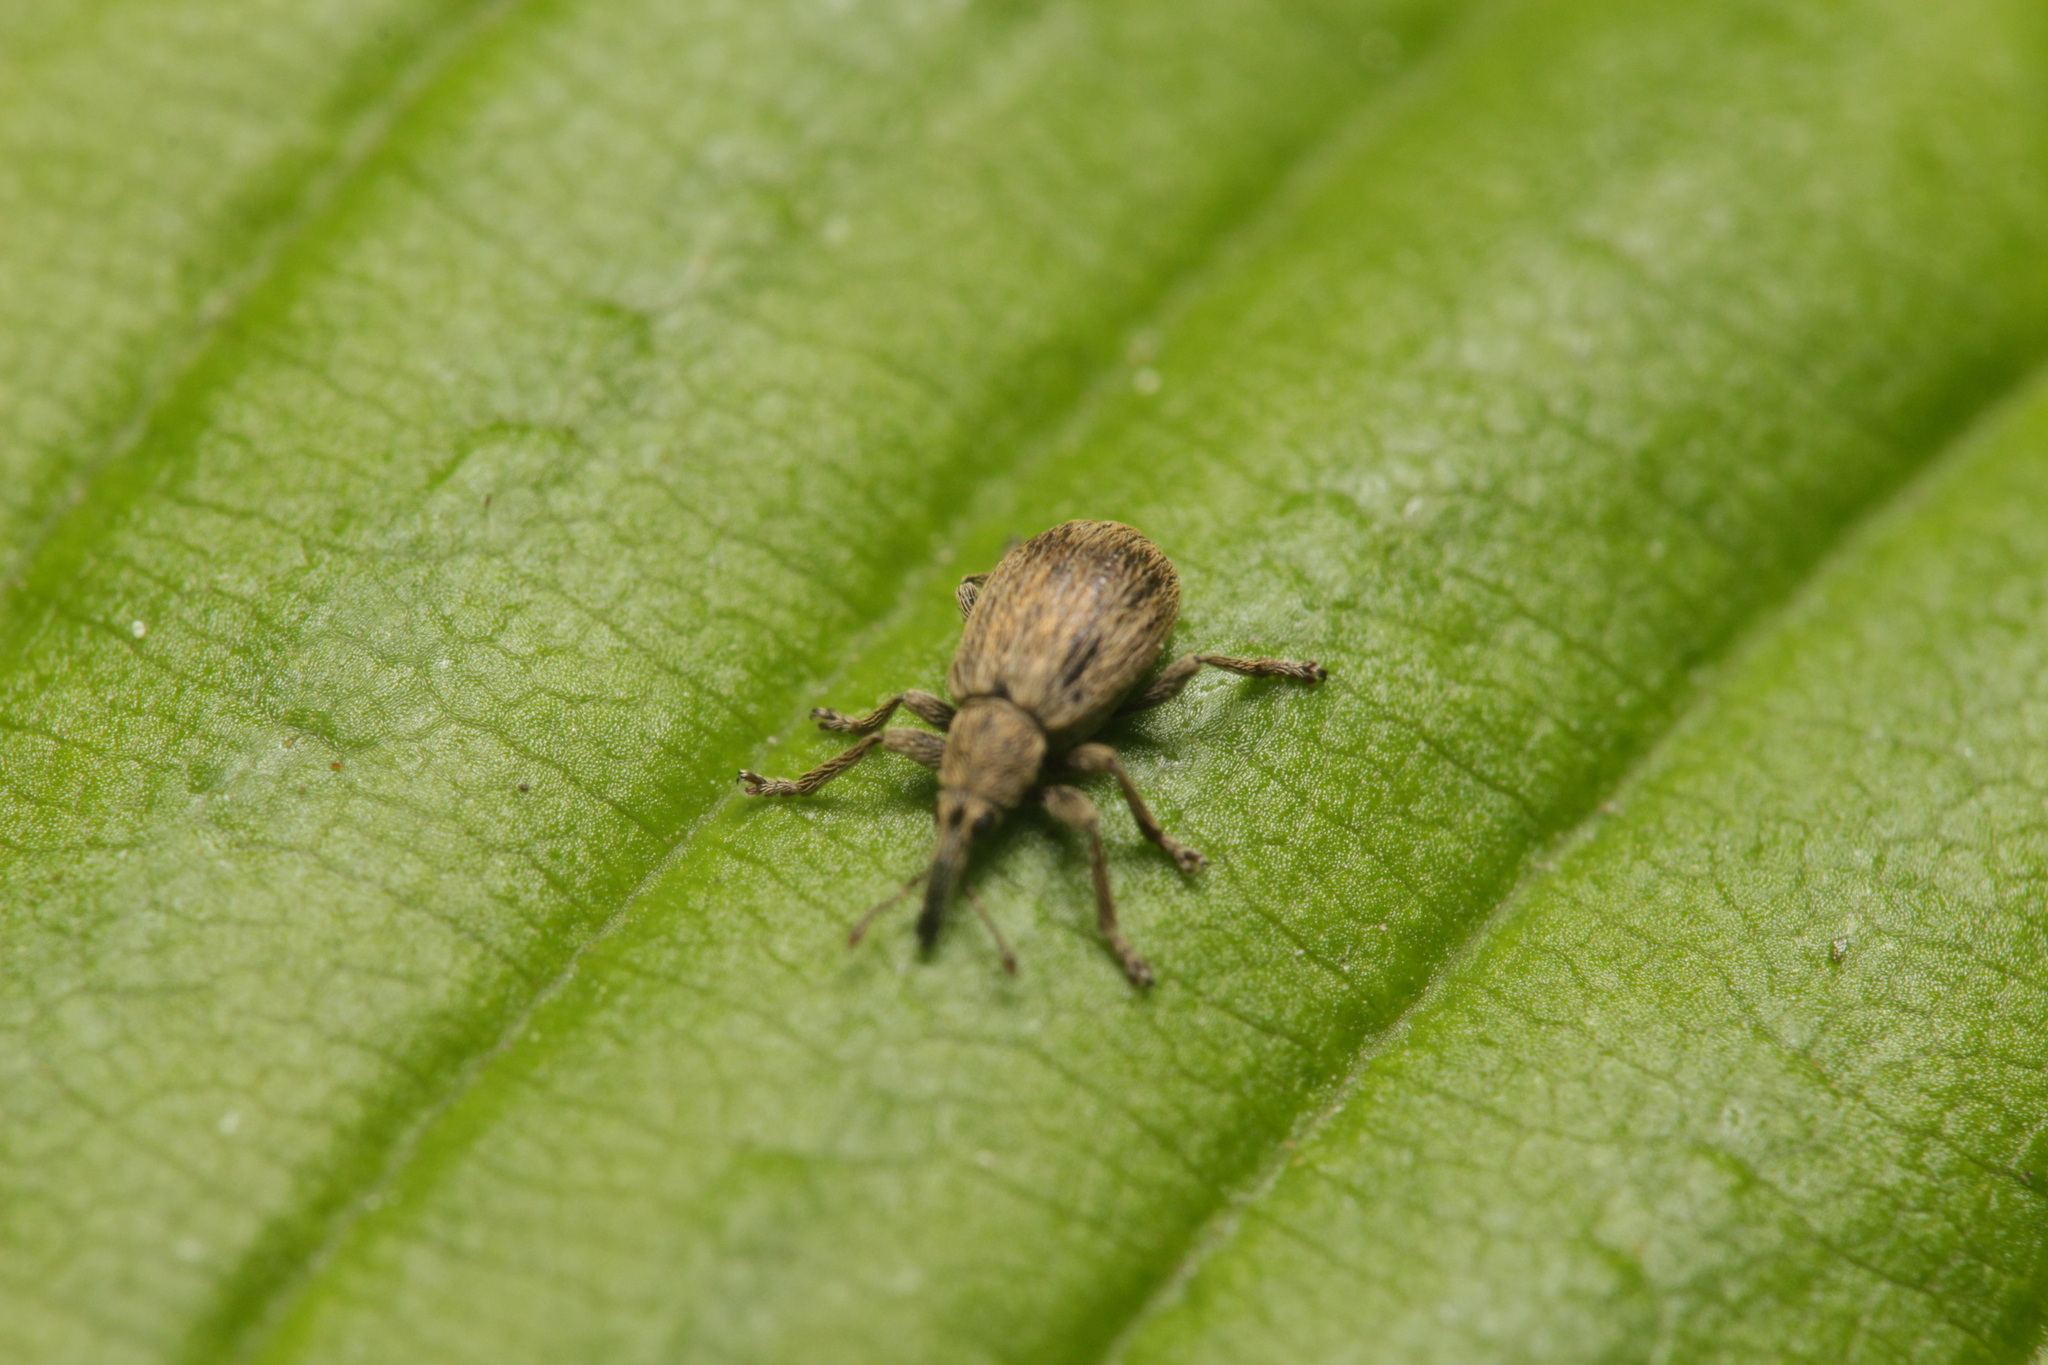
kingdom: Animalia
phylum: Arthropoda
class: Insecta
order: Coleoptera
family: Apionidae
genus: Trichopterapion
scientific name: Trichopterapion holosericeum
